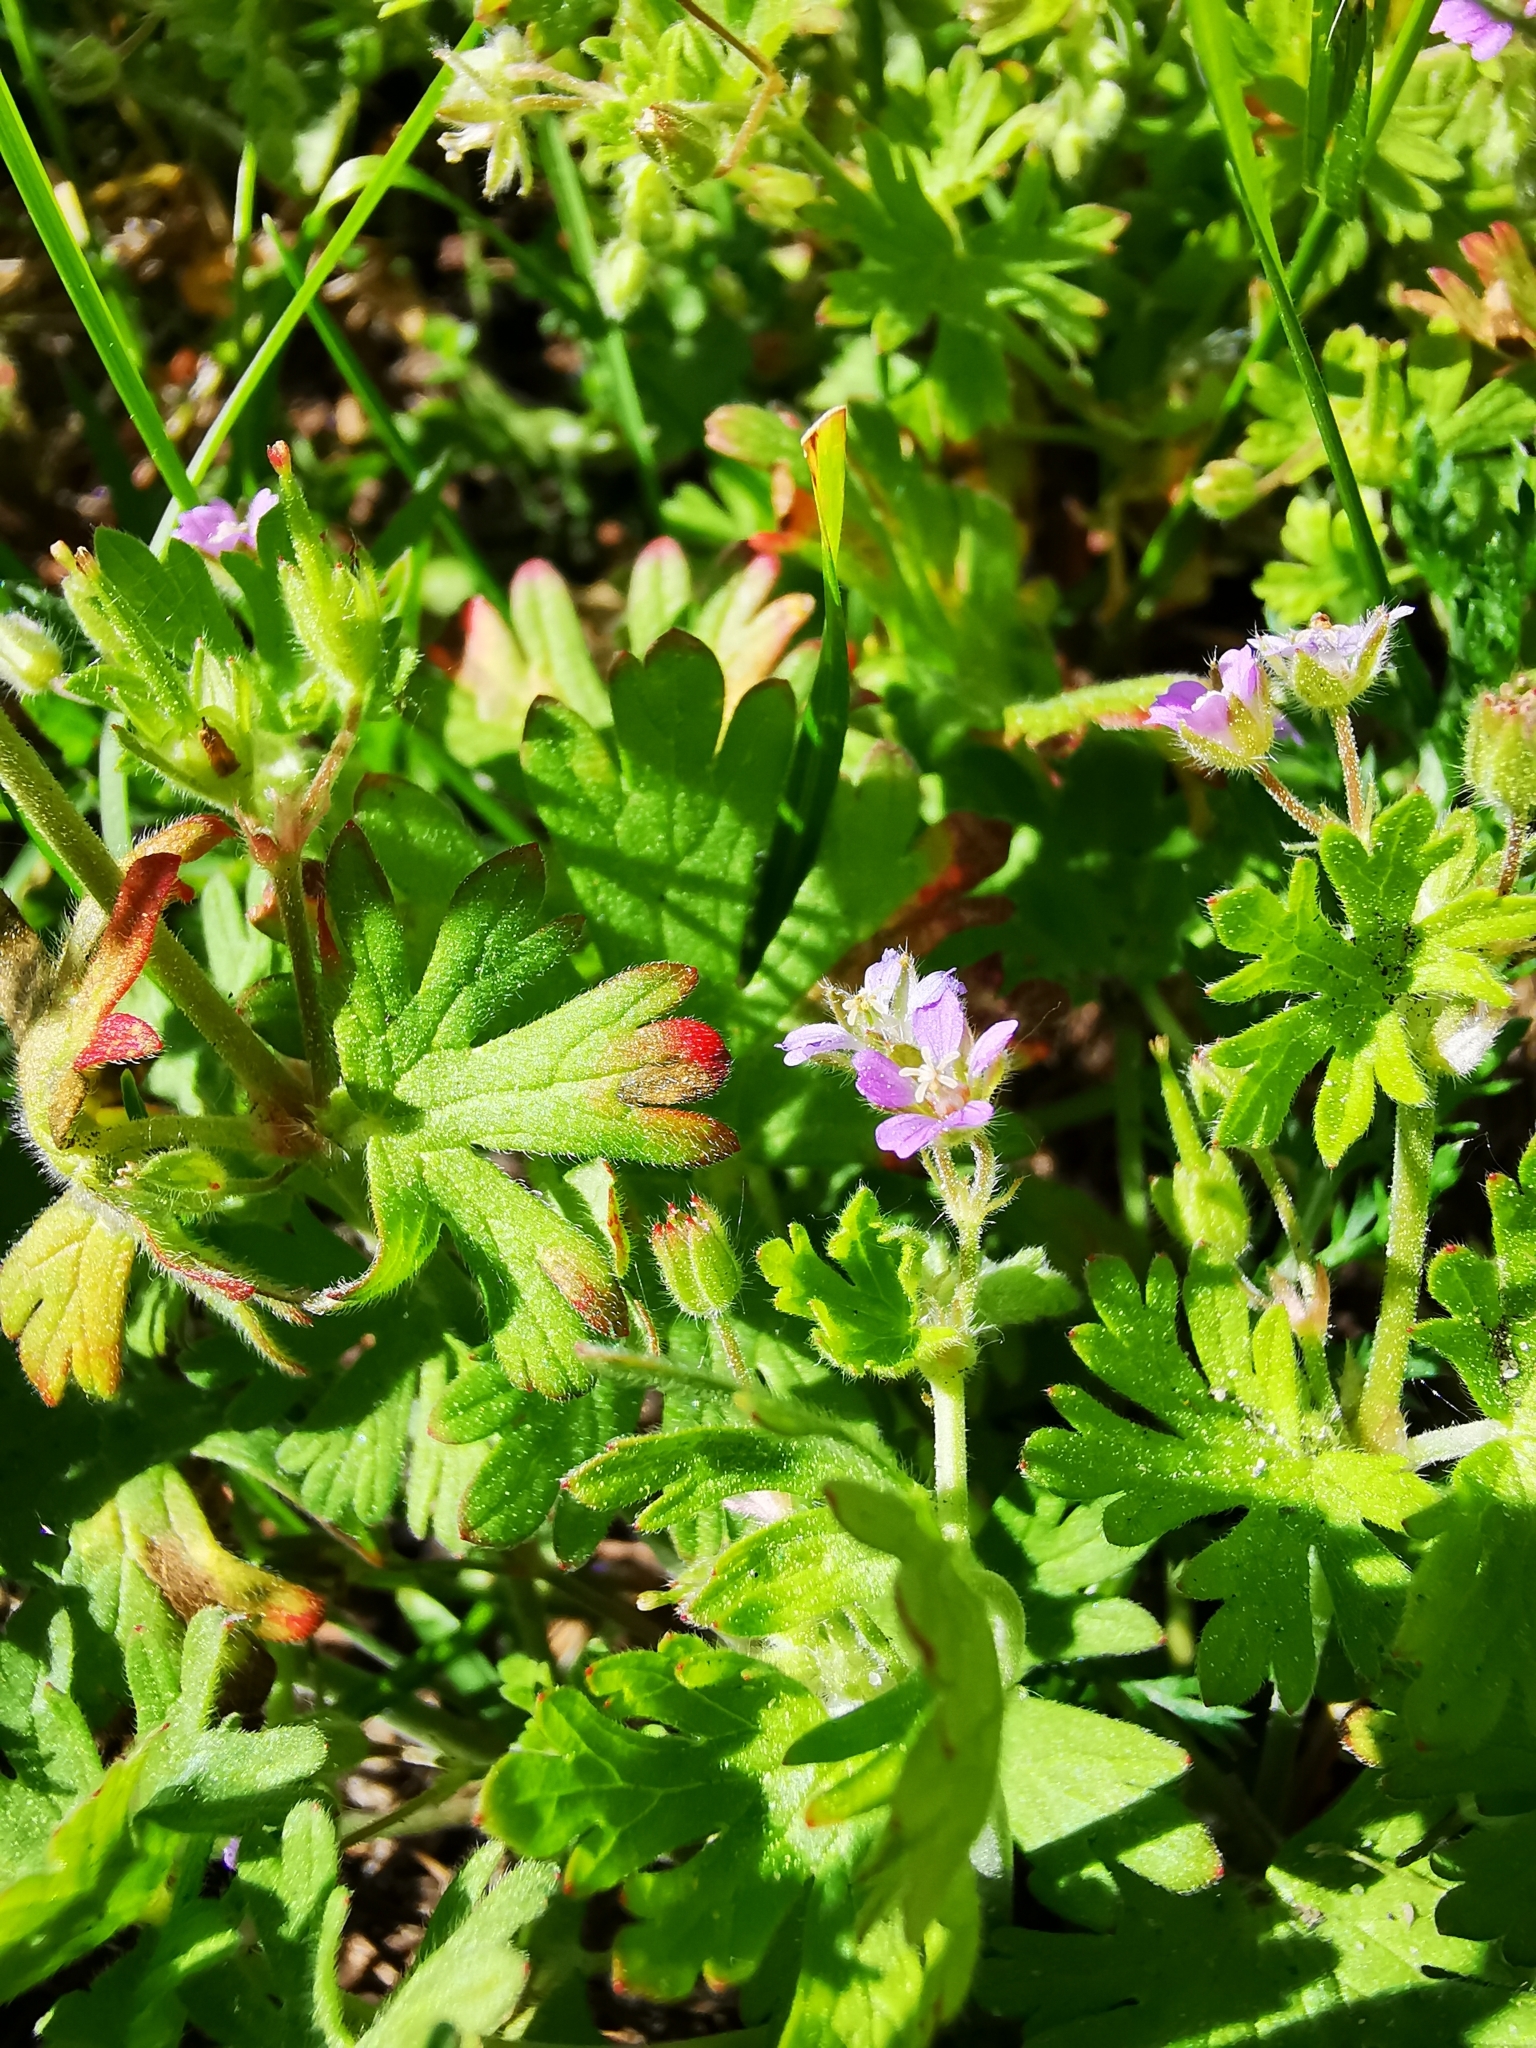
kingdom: Plantae
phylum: Tracheophyta
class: Magnoliopsida
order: Geraniales
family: Geraniaceae
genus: Geranium
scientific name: Geranium pusillum
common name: Small geranium
